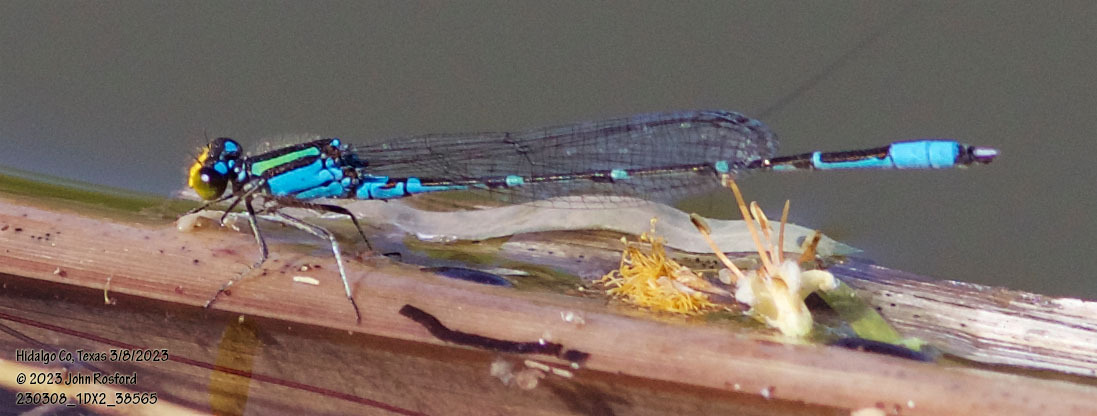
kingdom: Animalia
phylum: Arthropoda
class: Insecta
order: Odonata
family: Coenagrionidae
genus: Neoerythromma
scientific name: Neoerythromma cultellatum
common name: Caribbean yellowface
